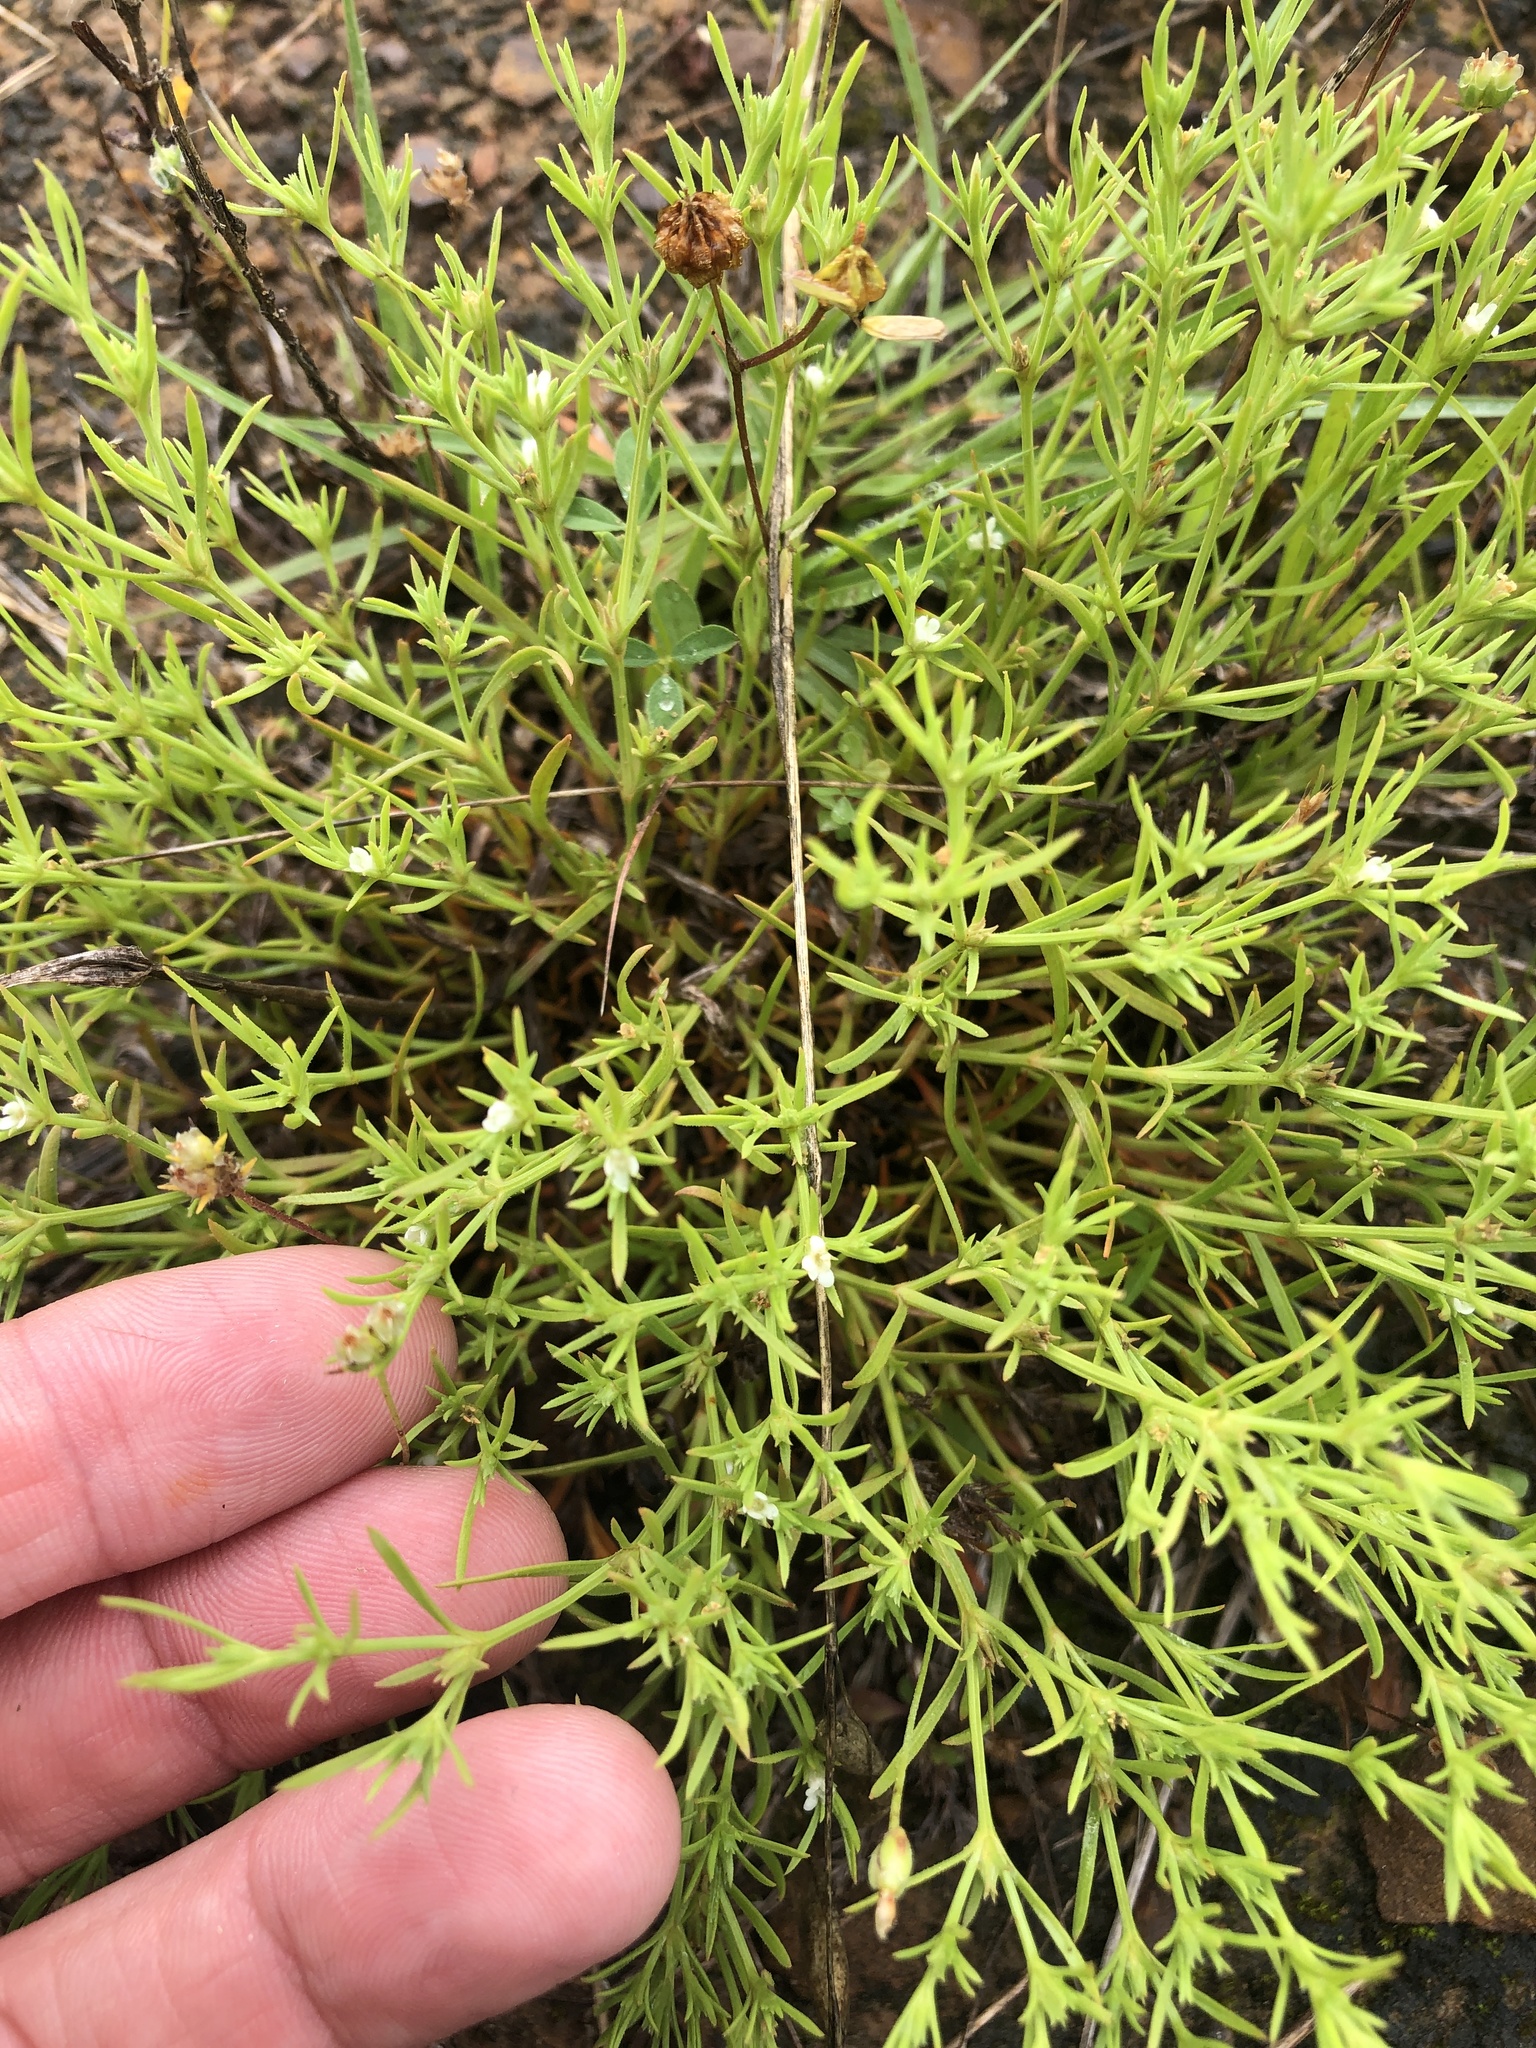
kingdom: Plantae
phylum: Tracheophyta
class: Magnoliopsida
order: Lamiales
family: Tetrachondraceae
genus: Polypremum
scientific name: Polypremum procumbens
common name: Juniper-leaf
